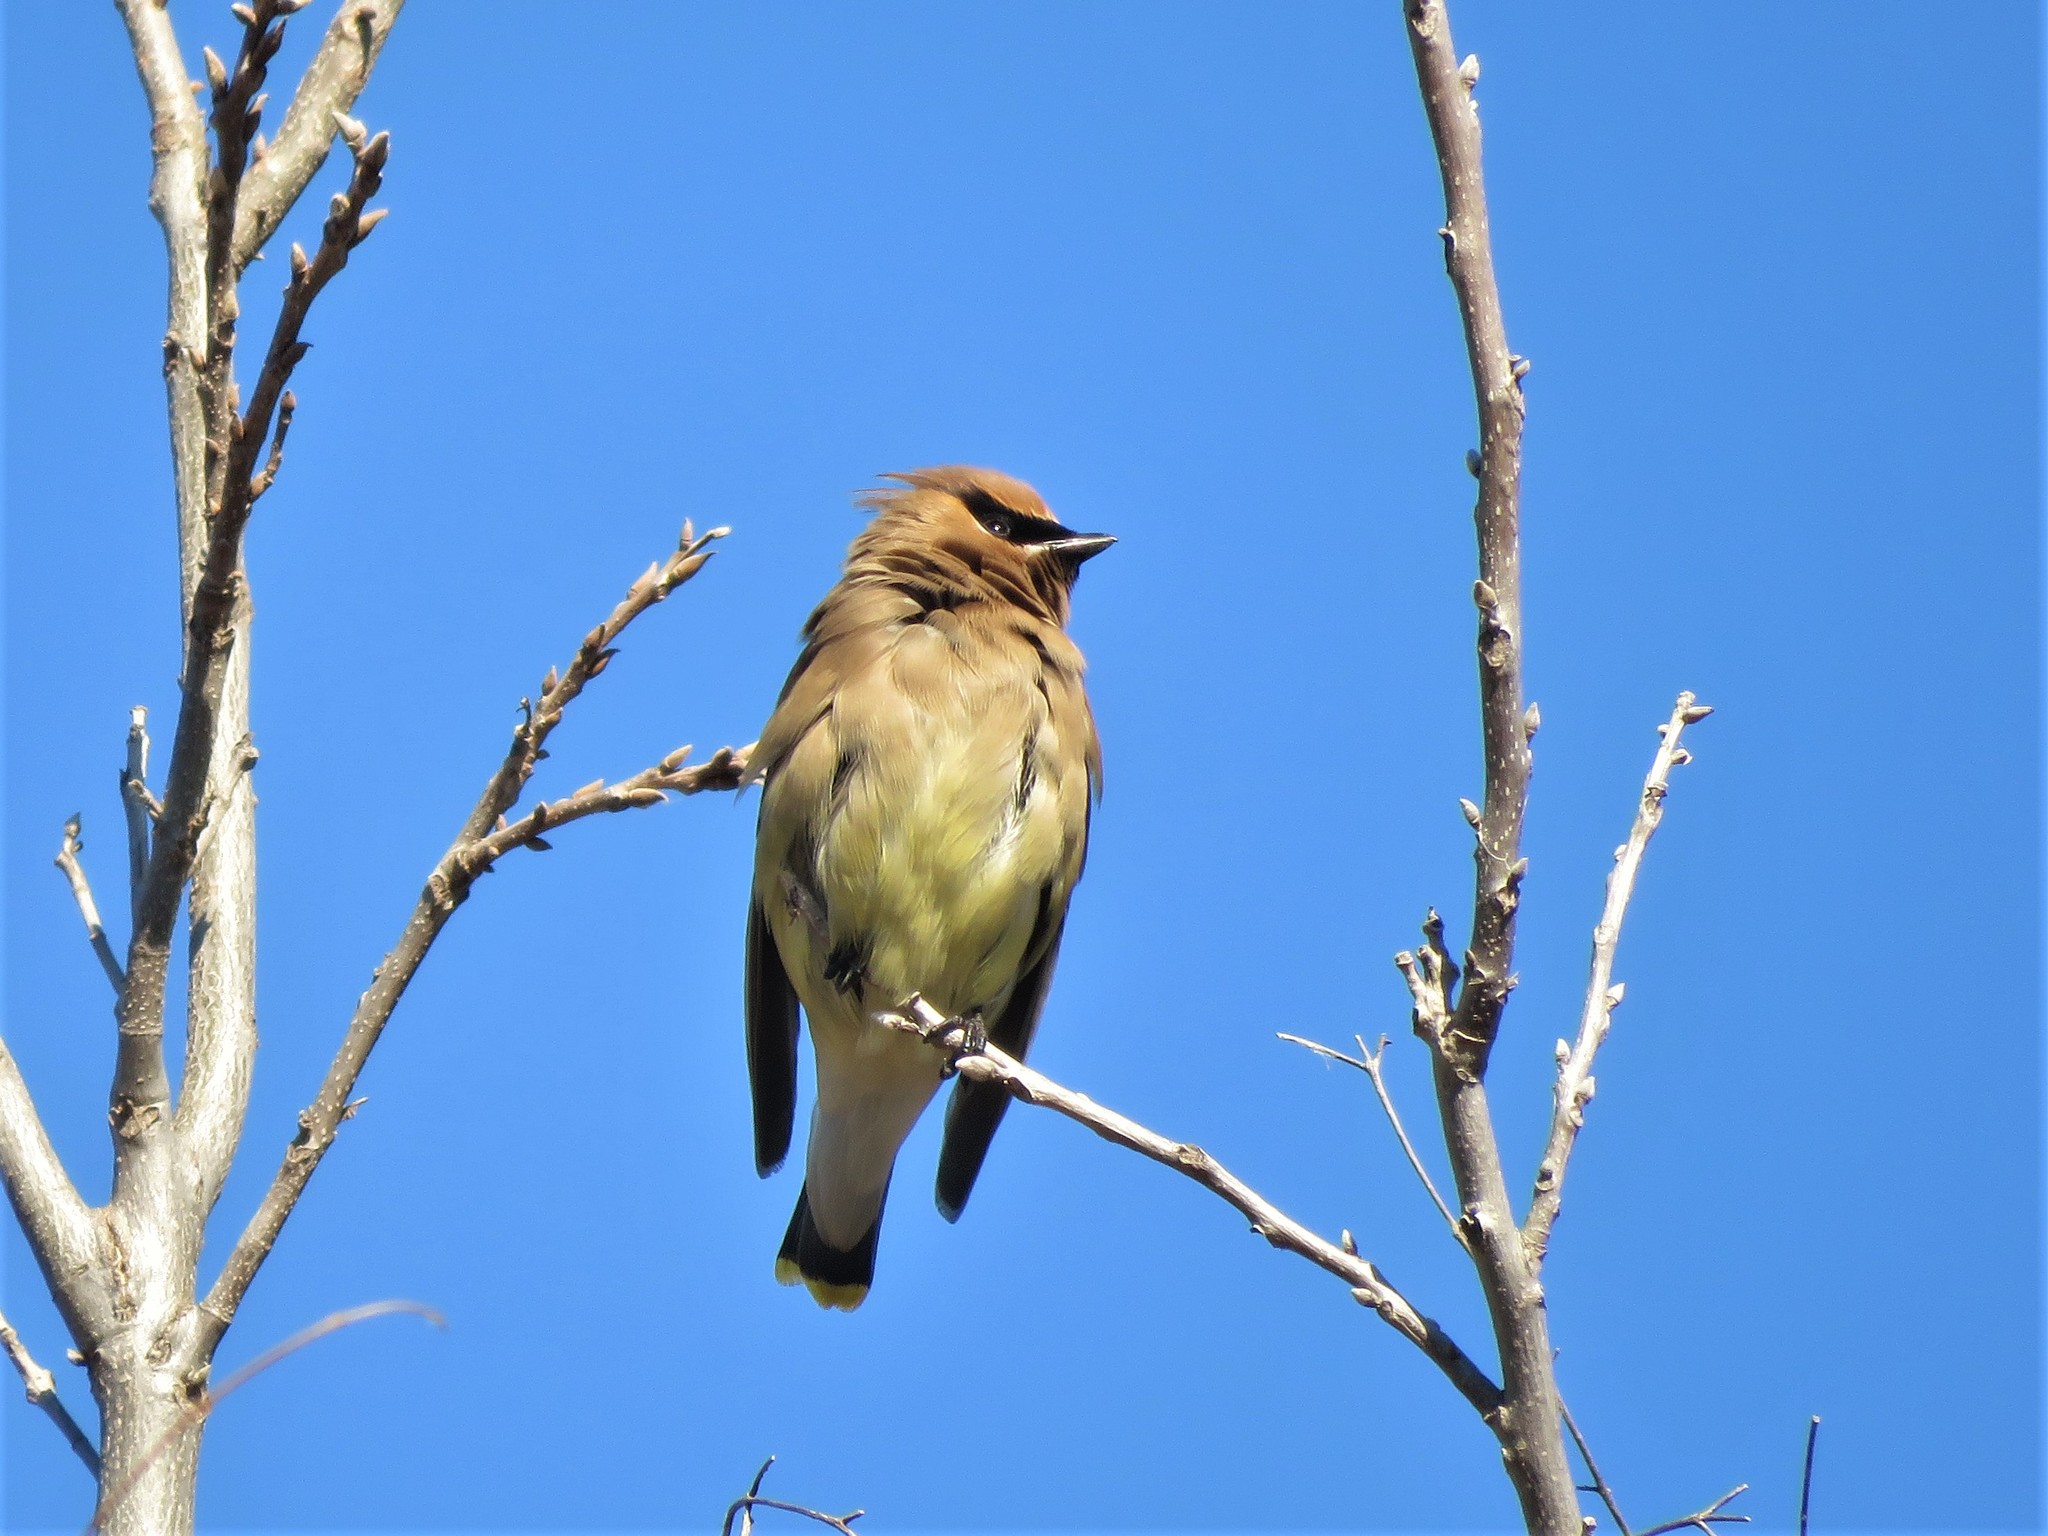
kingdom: Animalia
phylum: Chordata
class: Aves
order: Passeriformes
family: Bombycillidae
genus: Bombycilla
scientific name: Bombycilla cedrorum
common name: Cedar waxwing
